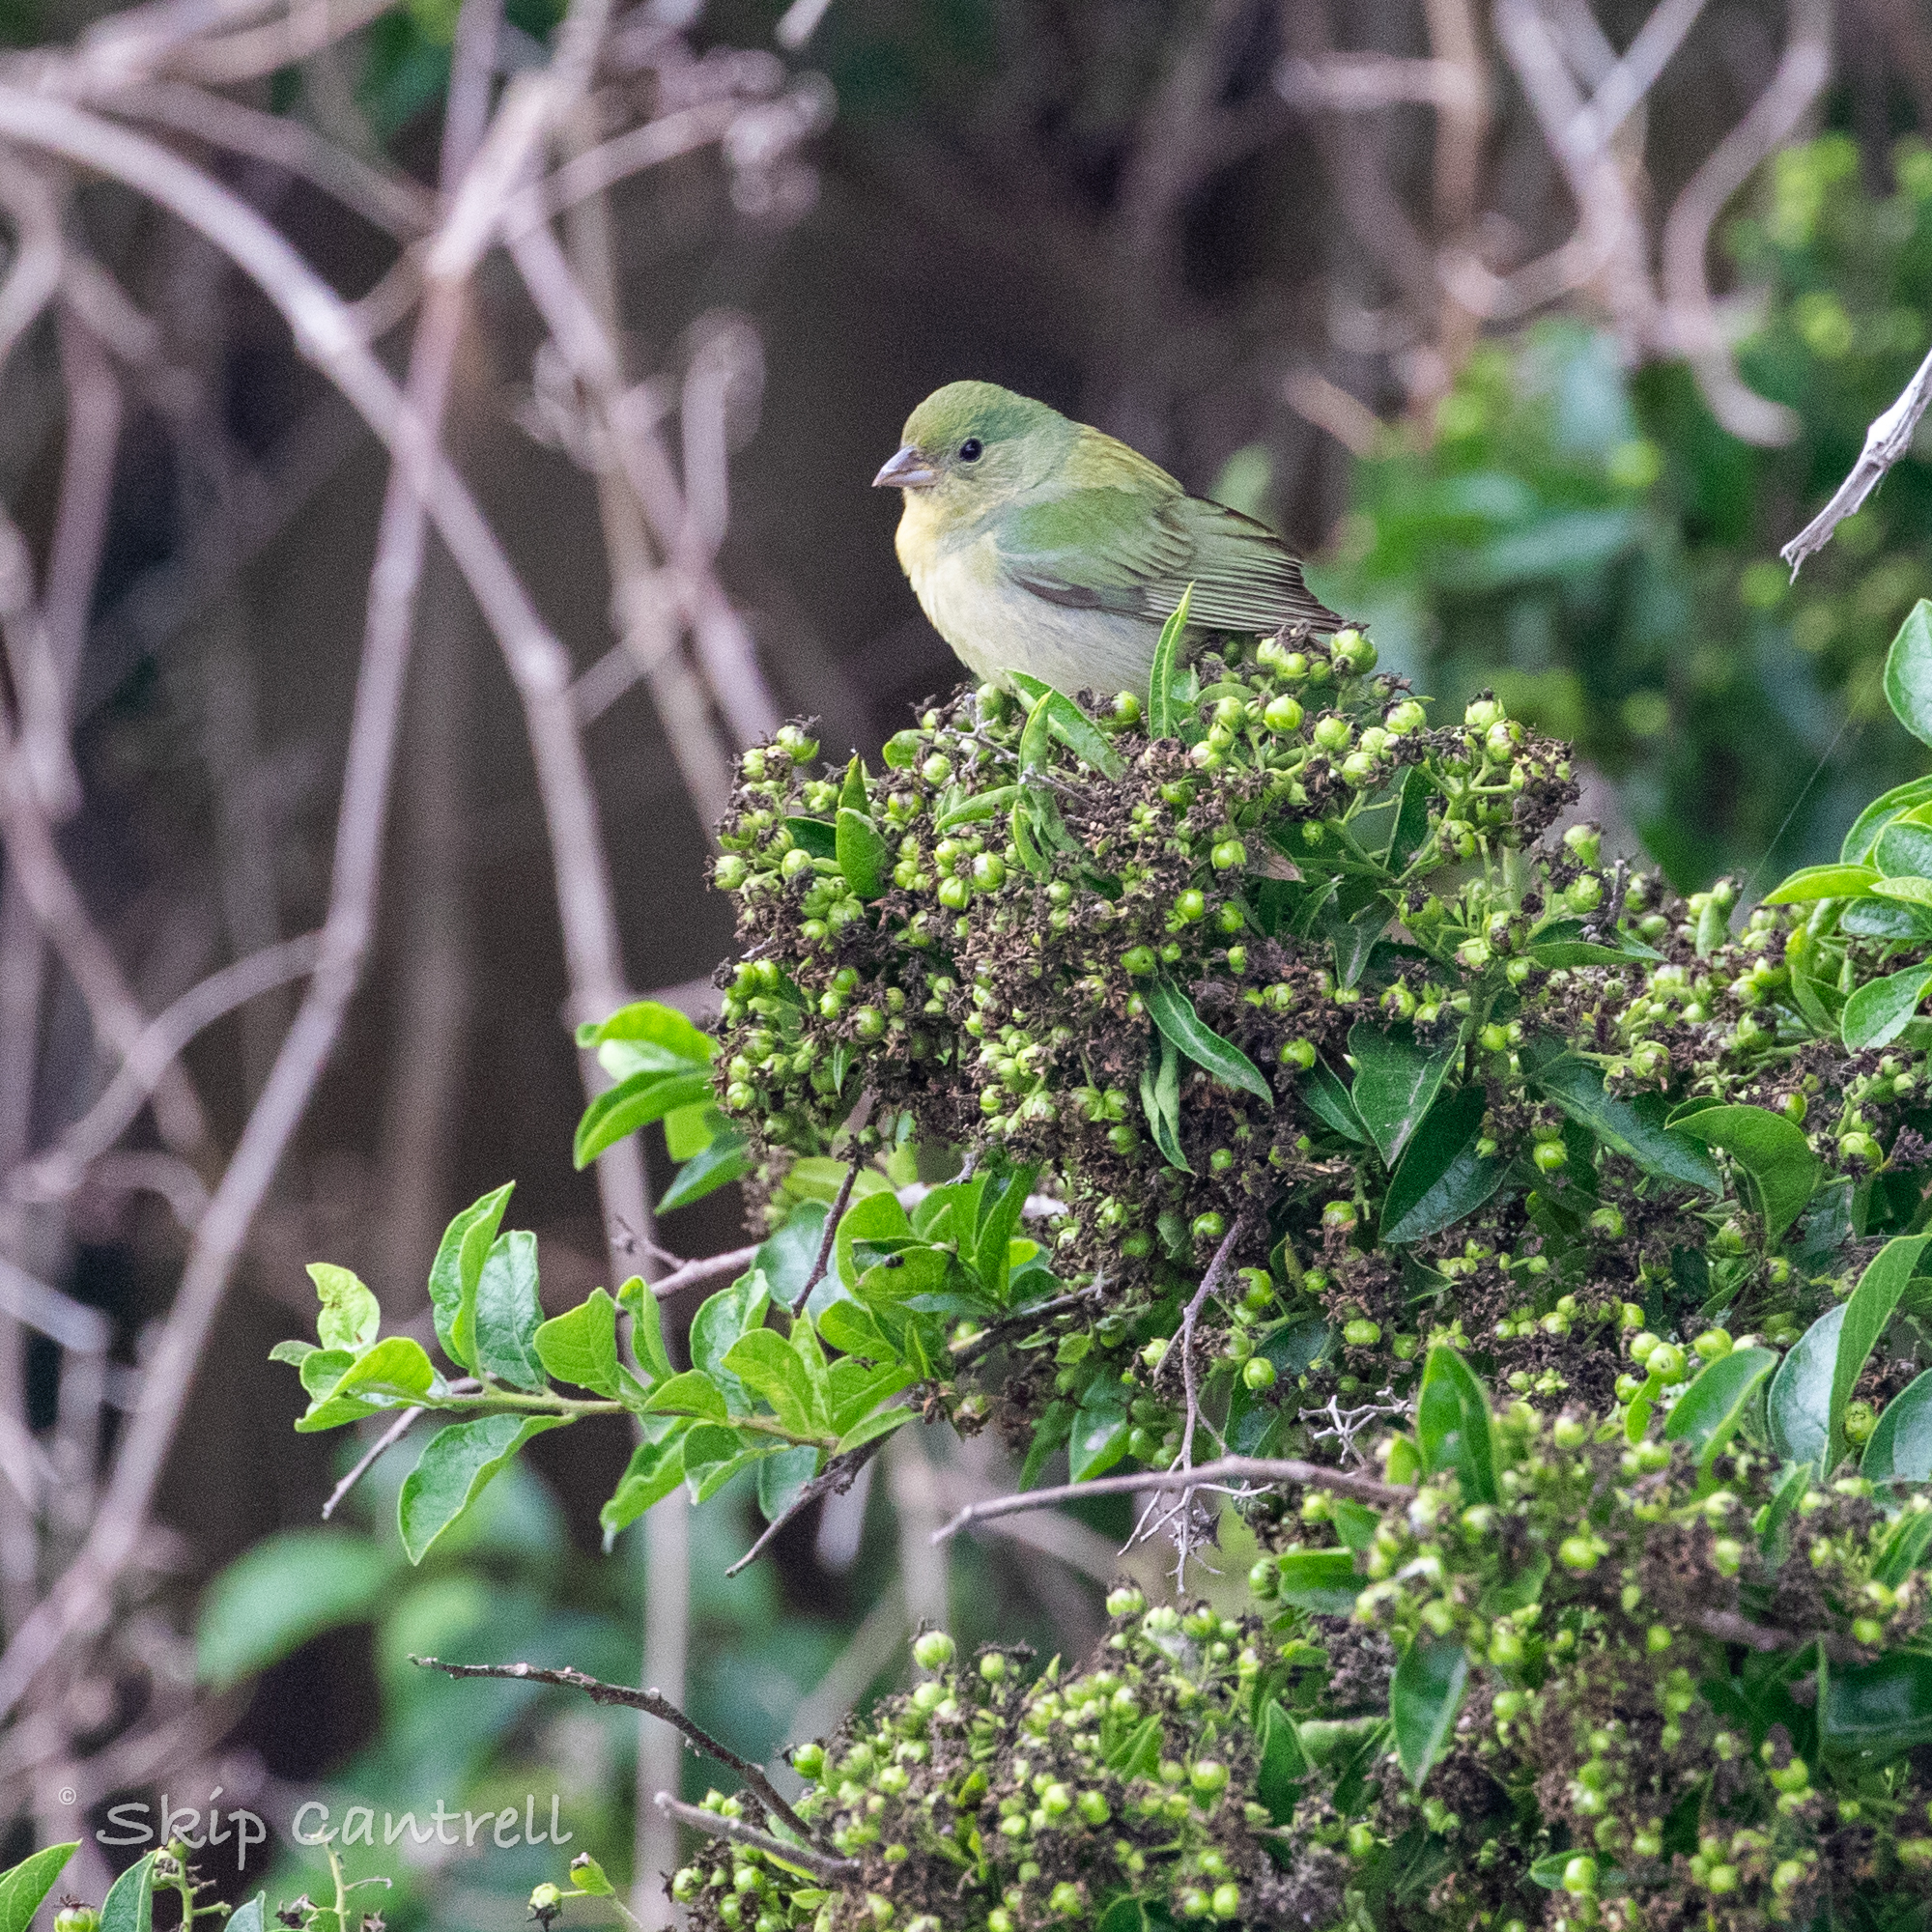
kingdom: Animalia
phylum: Chordata
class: Aves
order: Passeriformes
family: Cardinalidae
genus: Passerina
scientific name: Passerina ciris
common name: Painted bunting
